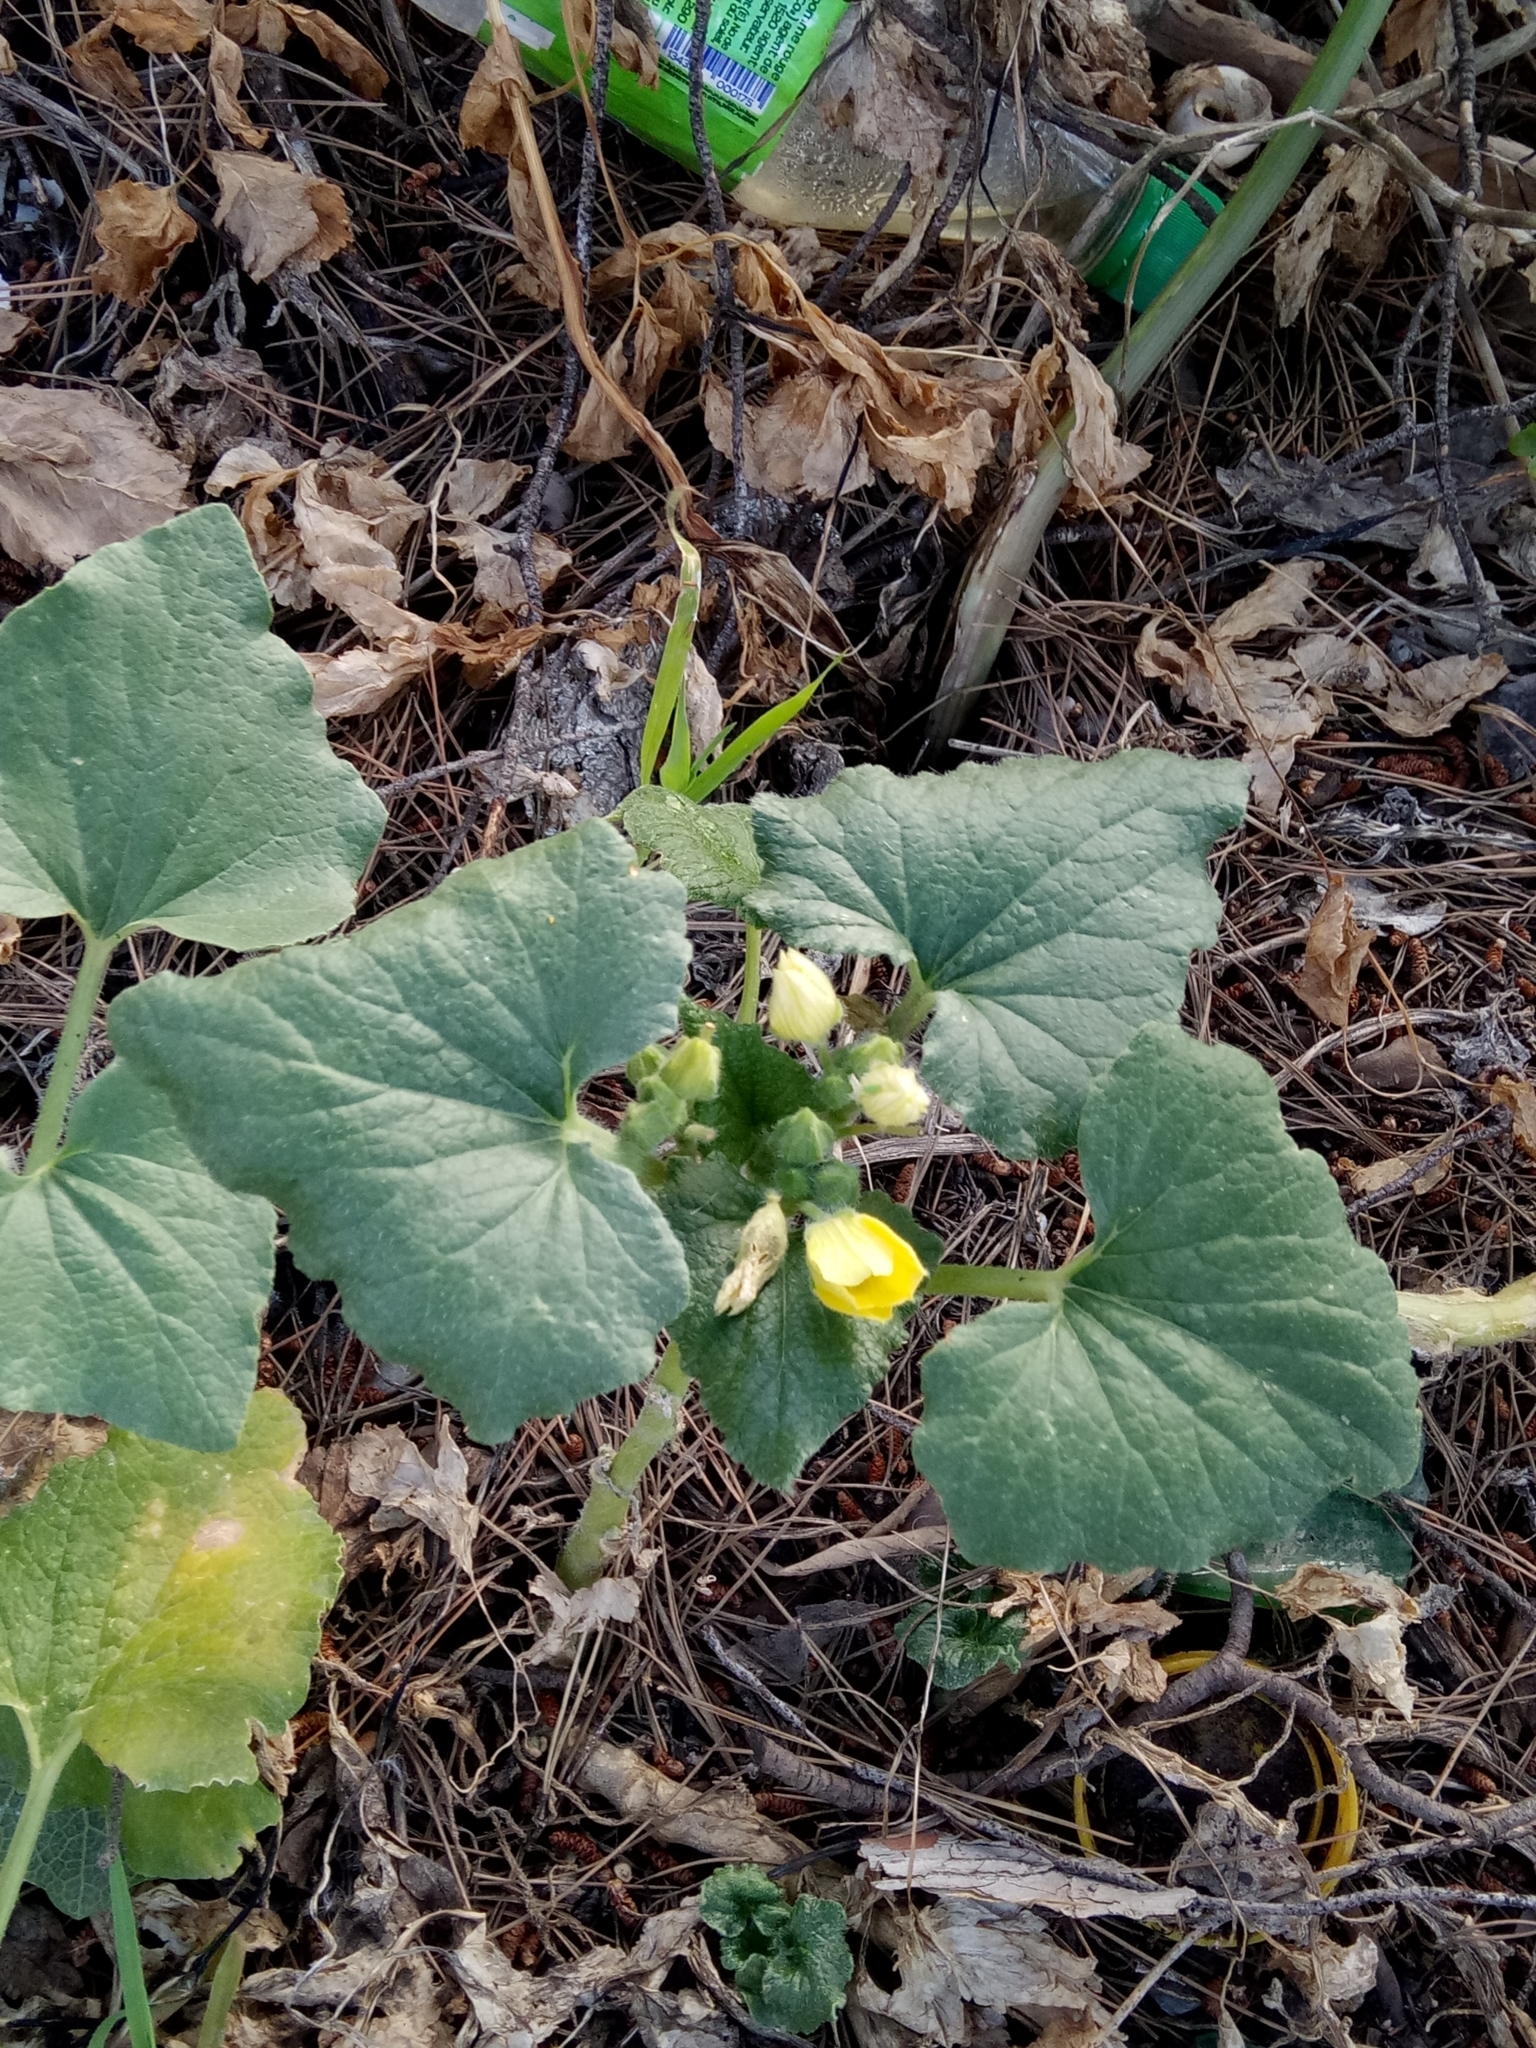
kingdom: Plantae
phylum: Tracheophyta
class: Magnoliopsida
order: Cucurbitales
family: Cucurbitaceae
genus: Ecballium
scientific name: Ecballium elaterium
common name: Squirting cucumber
